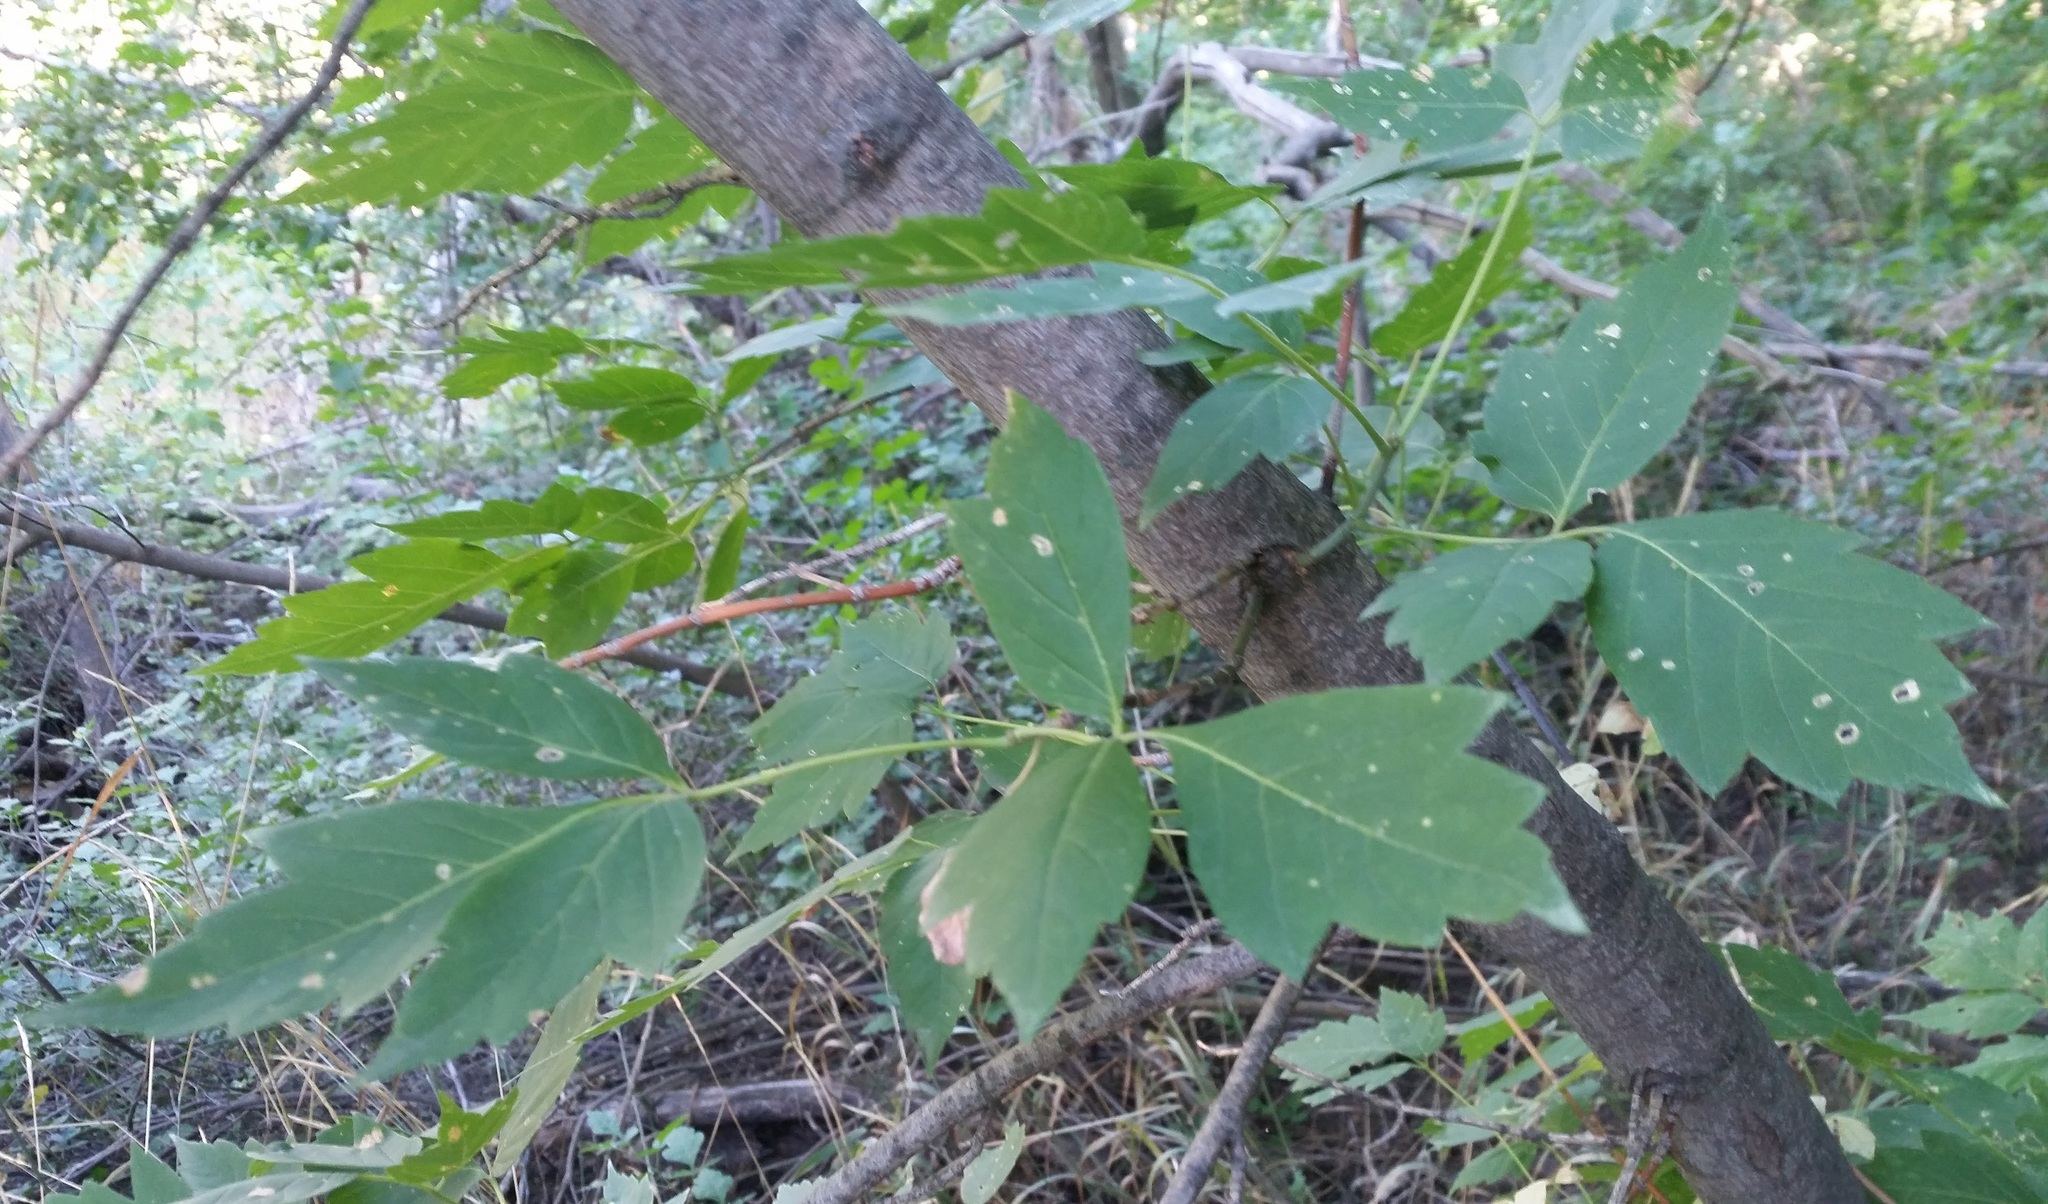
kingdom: Plantae
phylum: Tracheophyta
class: Magnoliopsida
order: Sapindales
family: Sapindaceae
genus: Acer
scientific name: Acer negundo
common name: Ashleaf maple
